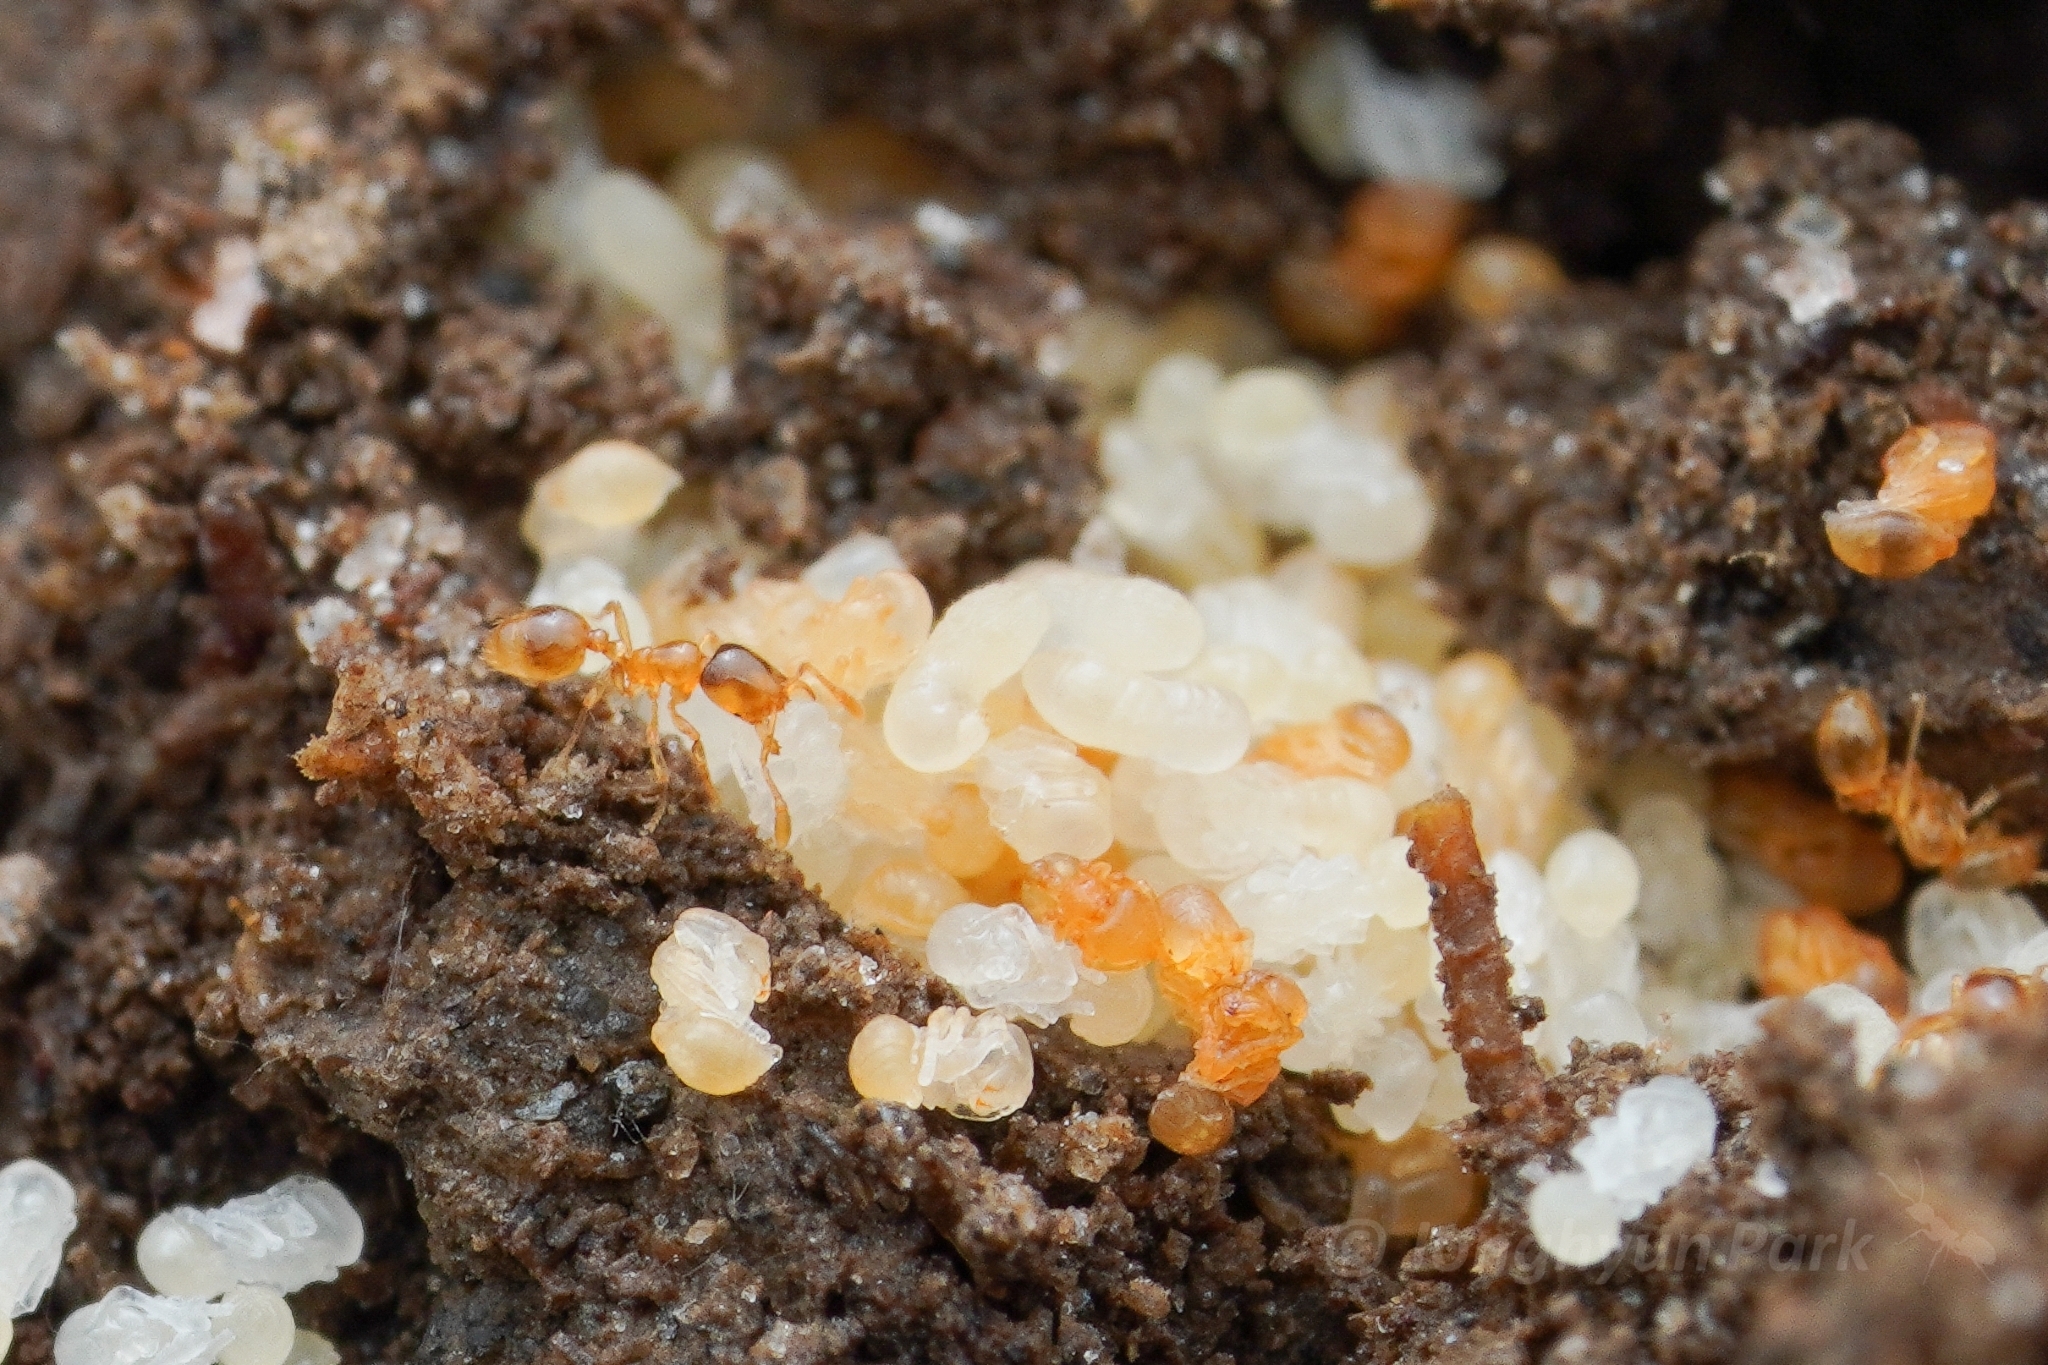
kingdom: Animalia
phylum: Arthropoda
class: Insecta
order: Hymenoptera
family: Formicidae
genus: Solenopsis
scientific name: Solenopsis molesta
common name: Thief ant
